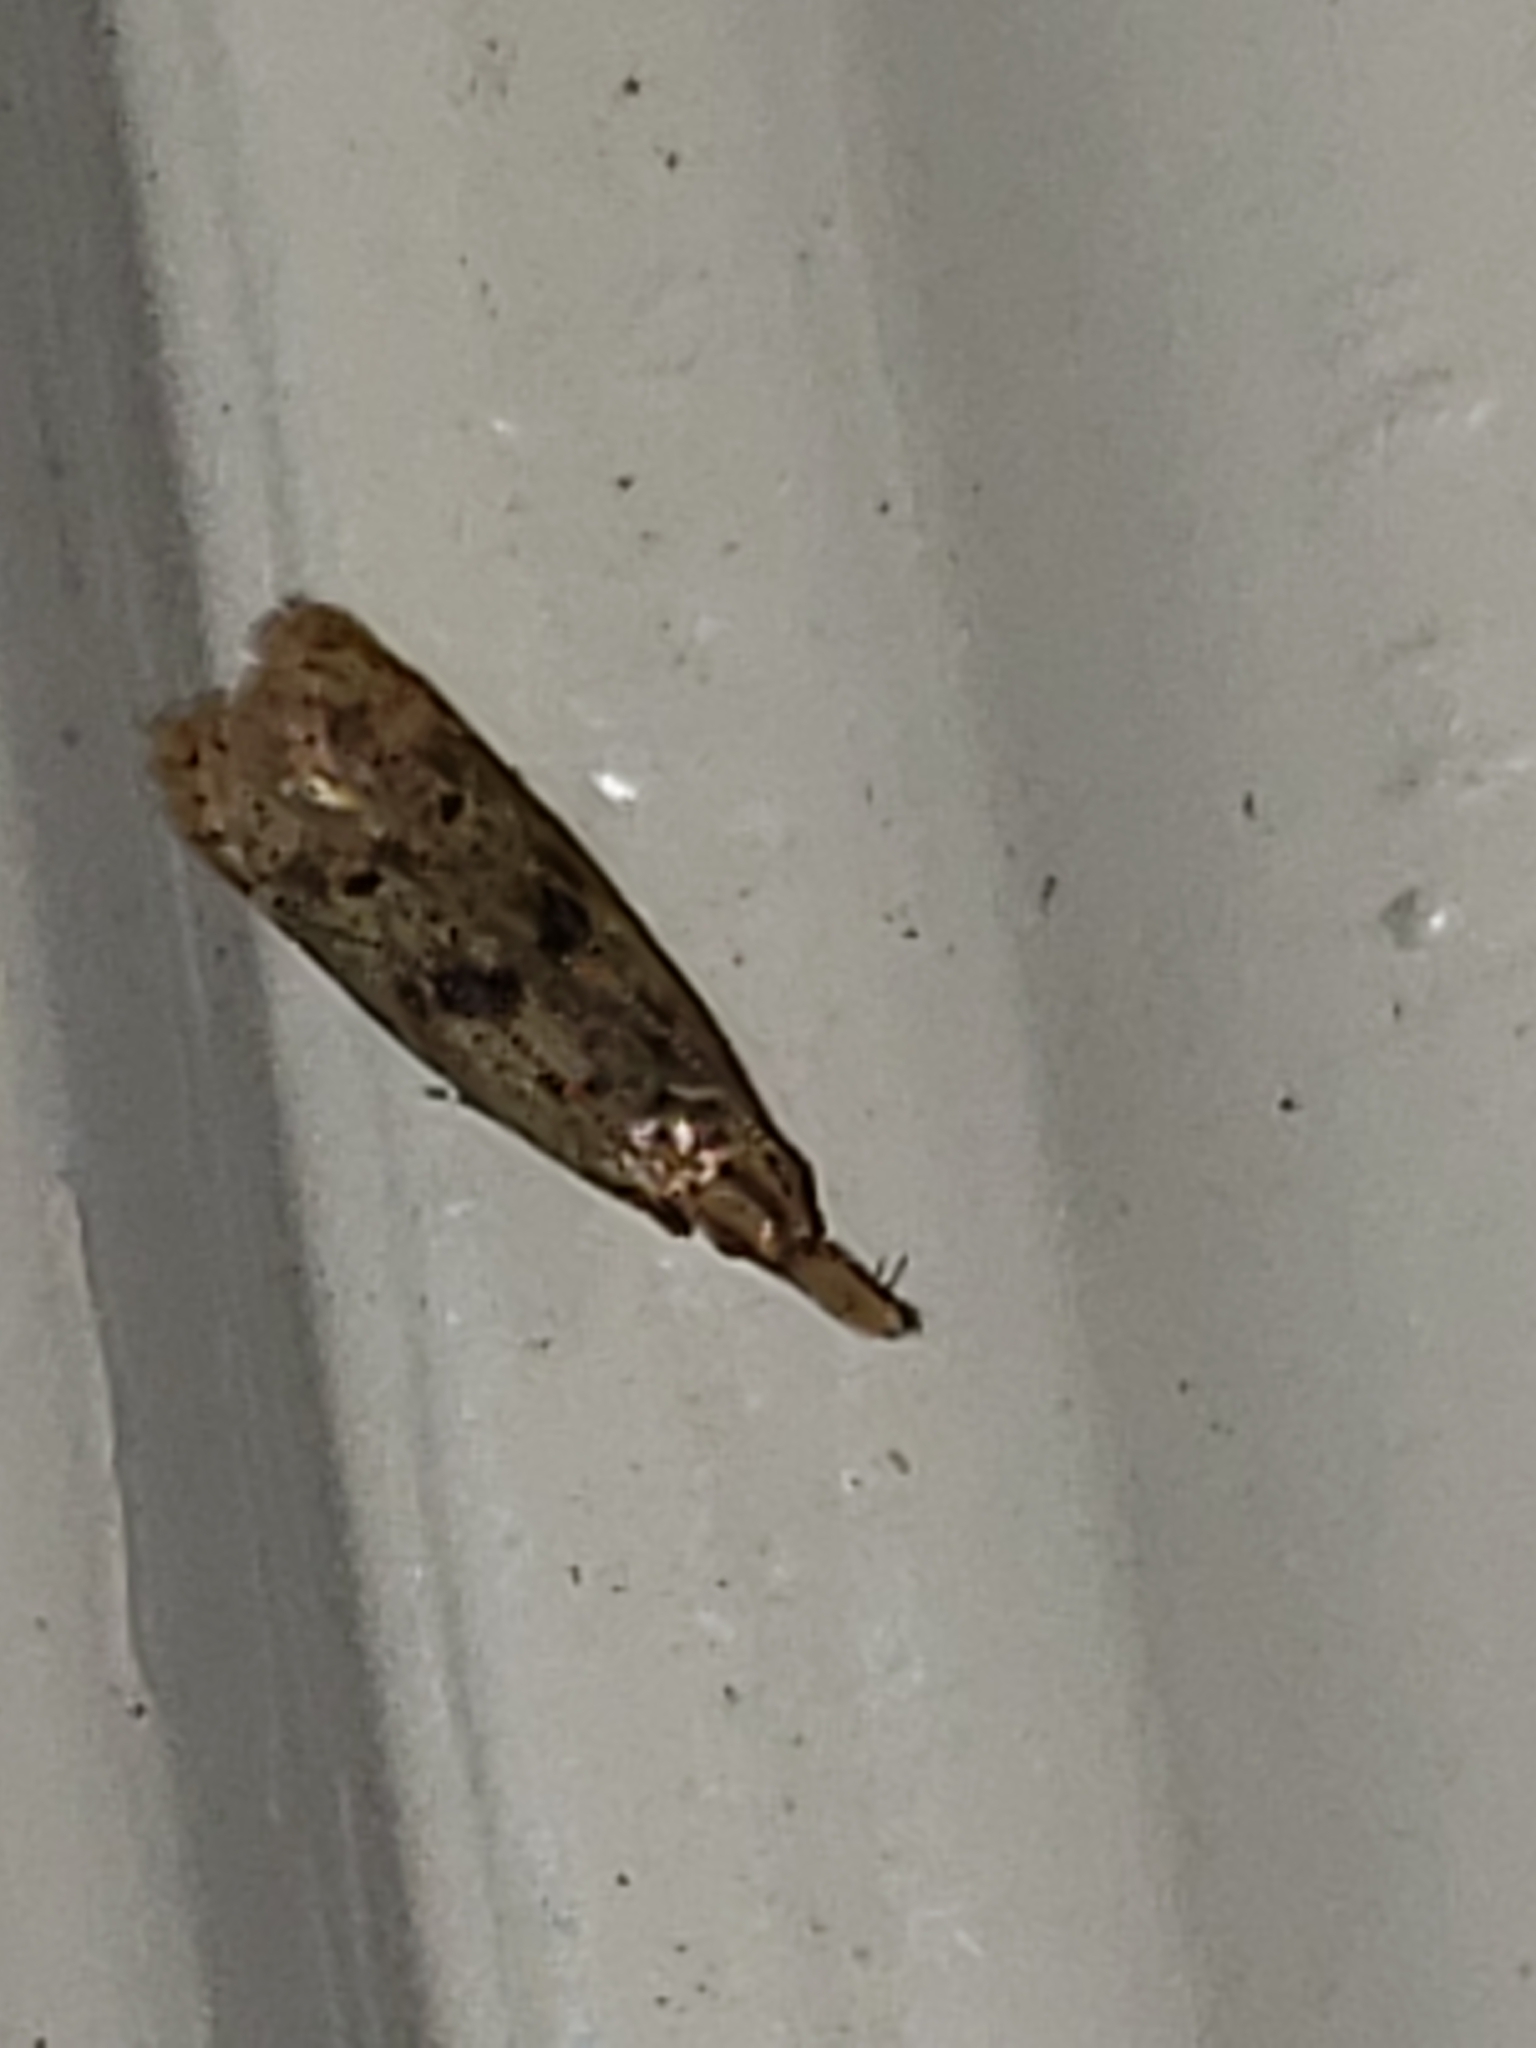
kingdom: Animalia
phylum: Arthropoda
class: Insecta
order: Lepidoptera
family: Gelechiidae
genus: Dichomeris
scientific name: Dichomeris punctipennella
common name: Many-spotted dichomeris moth
